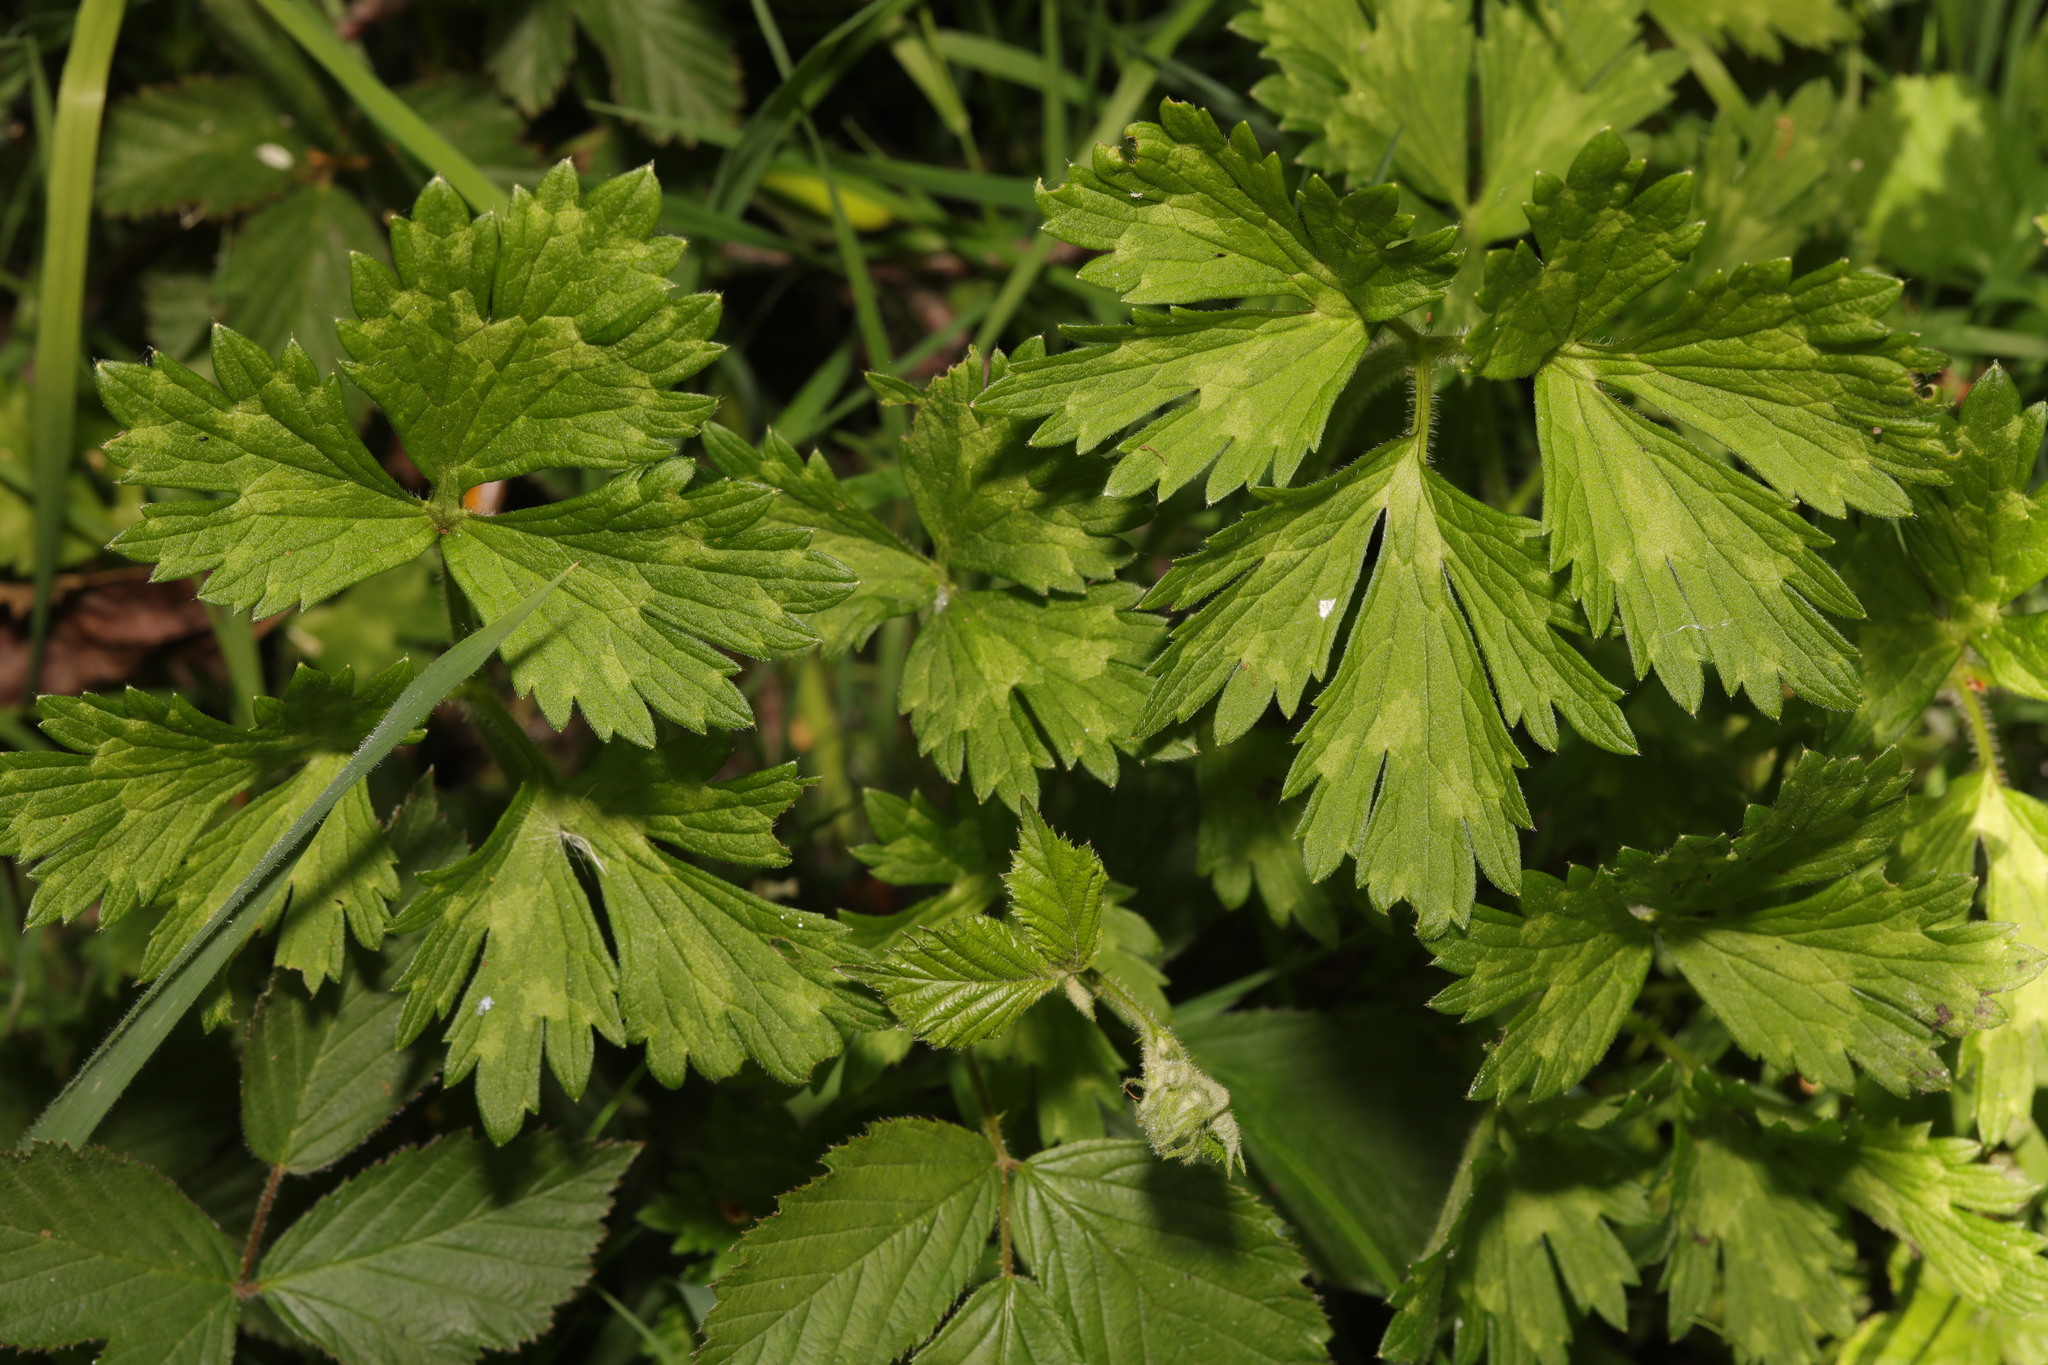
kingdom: Plantae
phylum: Tracheophyta
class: Magnoliopsida
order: Ranunculales
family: Ranunculaceae
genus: Ranunculus
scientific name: Ranunculus repens
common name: Creeping buttercup
